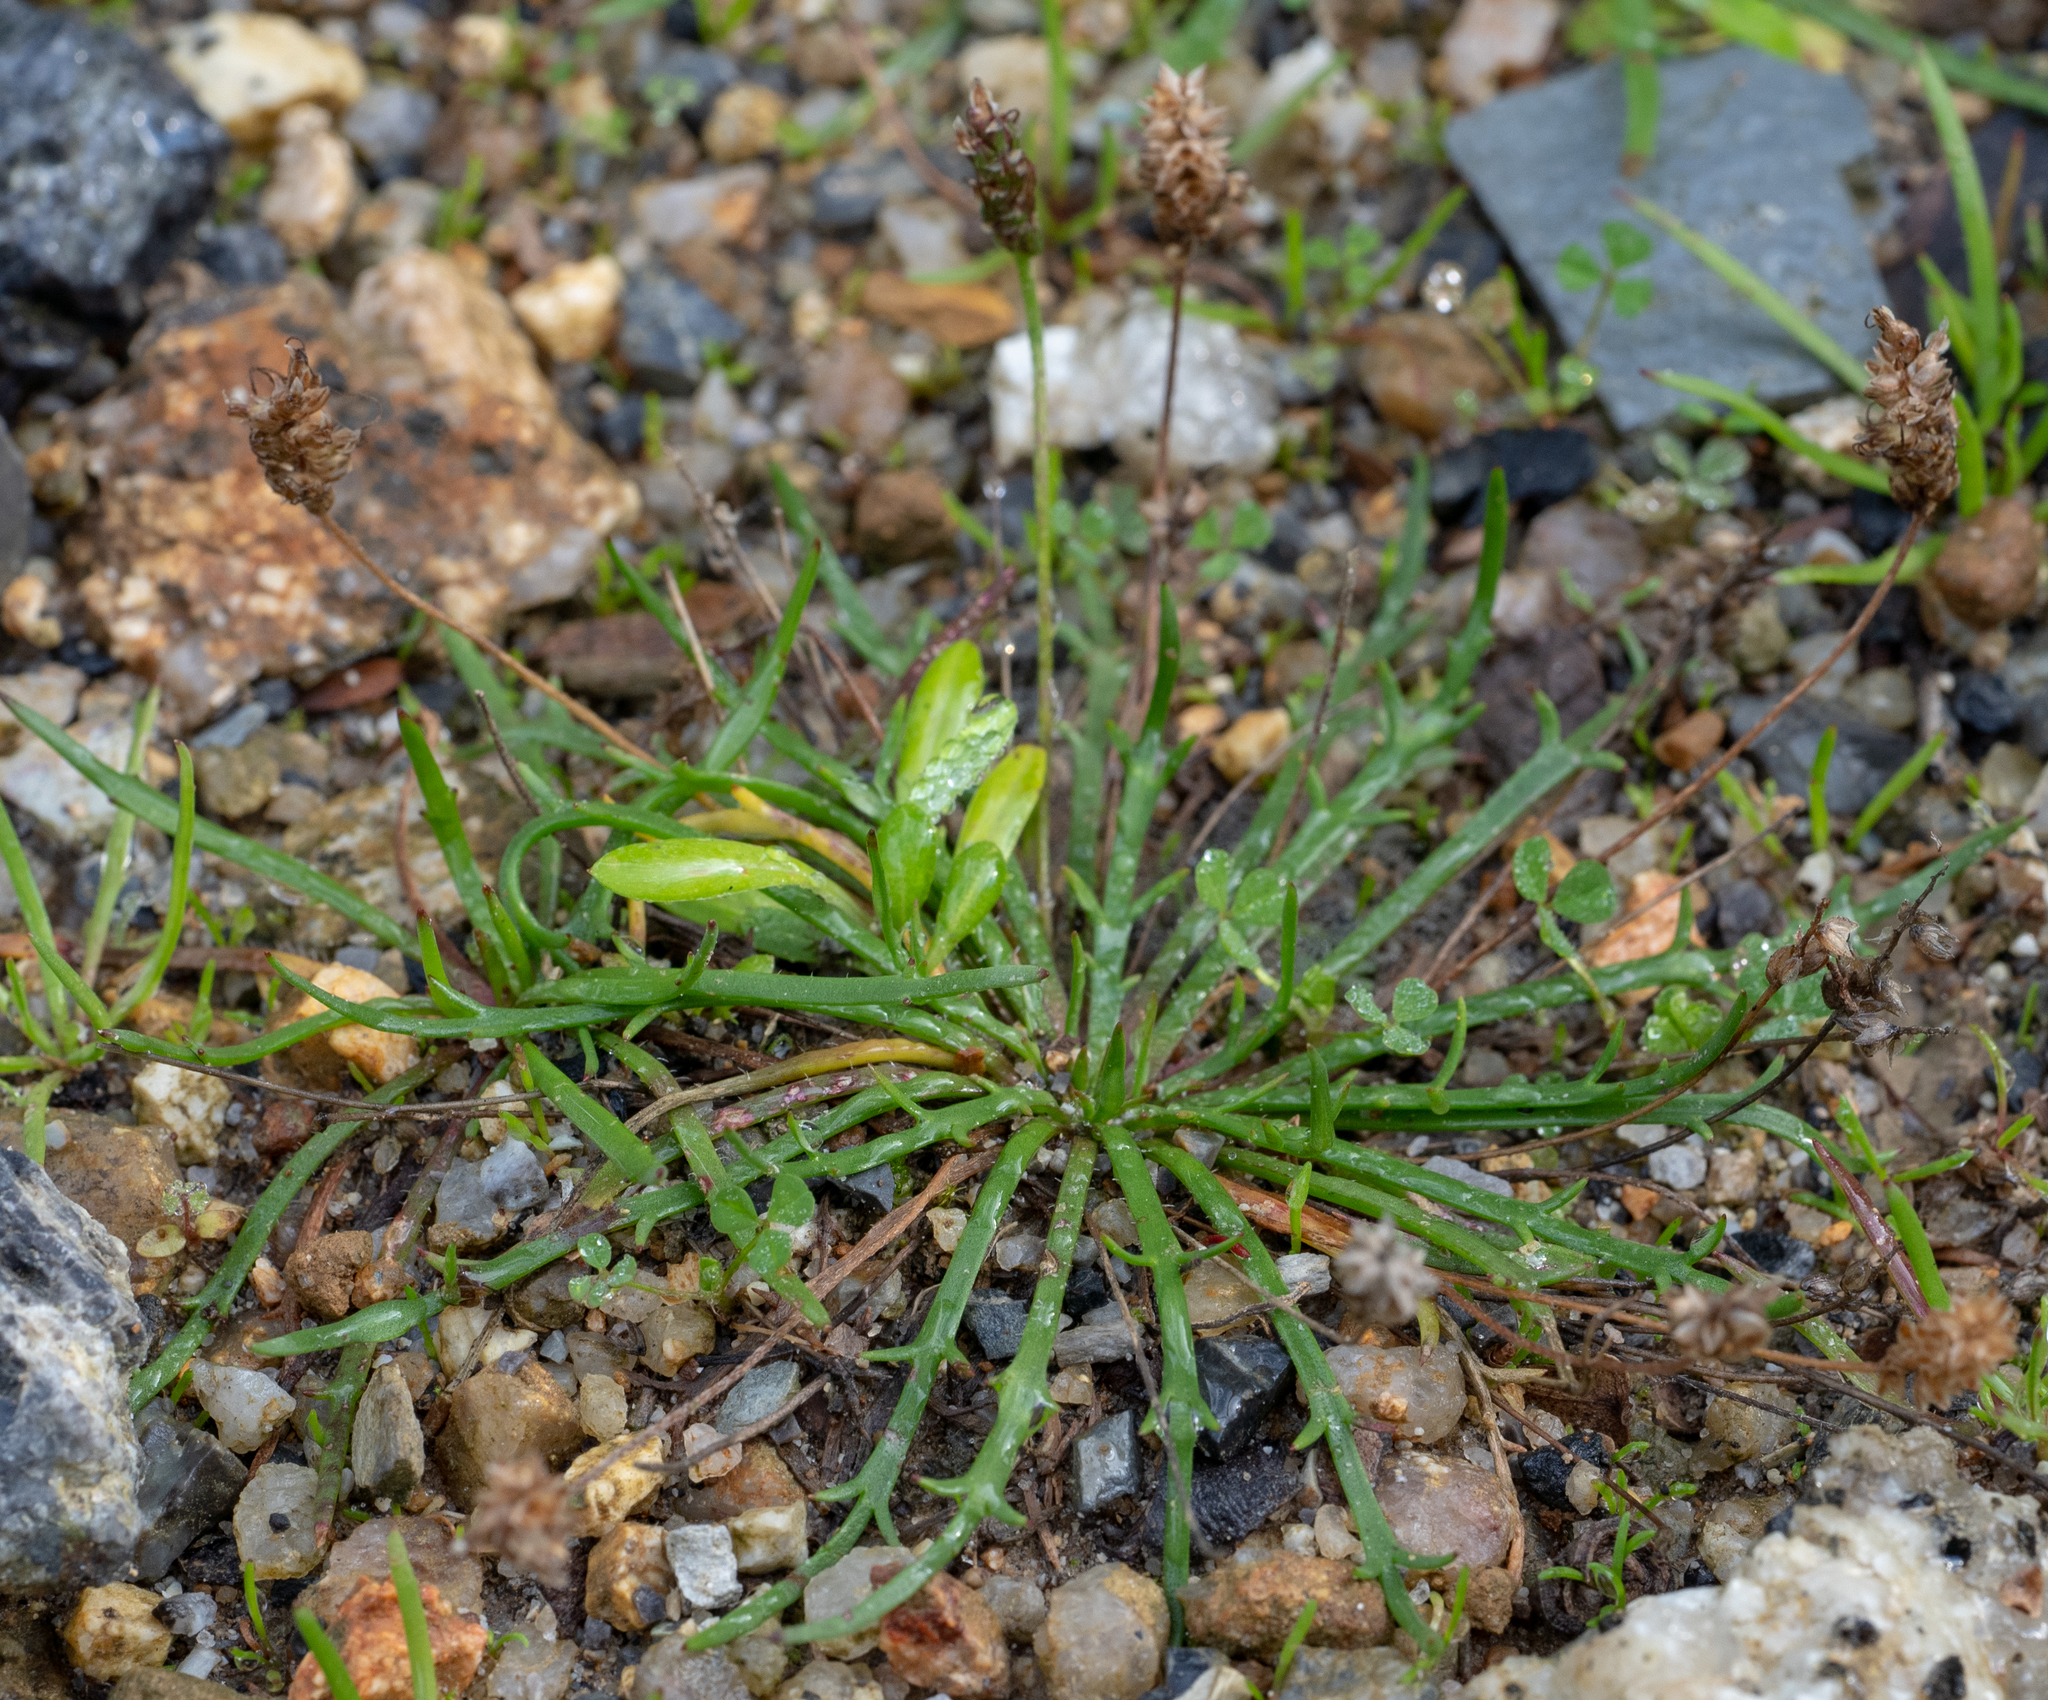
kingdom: Plantae
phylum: Tracheophyta
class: Magnoliopsida
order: Lamiales
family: Plantaginaceae
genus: Plantago
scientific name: Plantago coronopus
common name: Buck's-horn plantain
